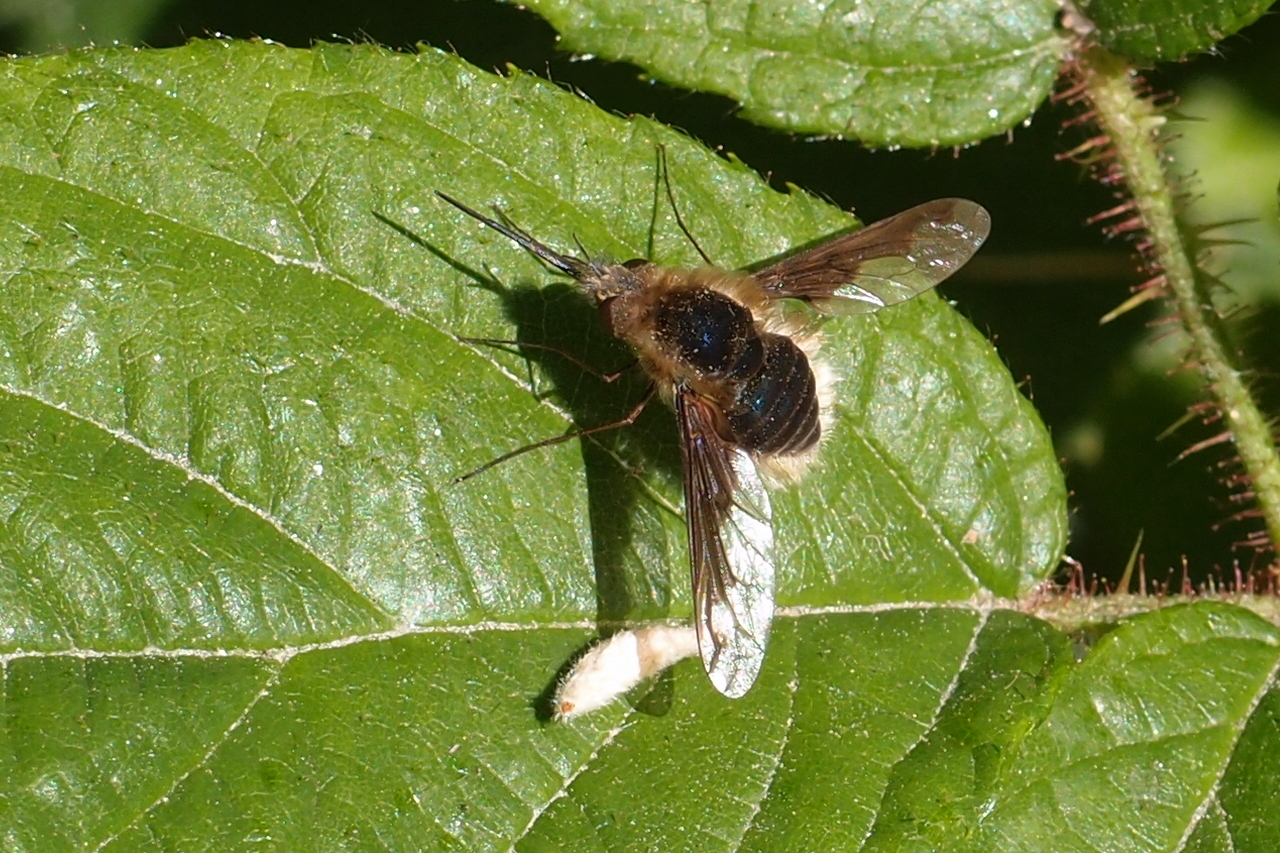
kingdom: Animalia
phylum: Arthropoda
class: Insecta
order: Diptera
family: Bombyliidae
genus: Bombylius
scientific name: Bombylius major
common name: Bee fly
